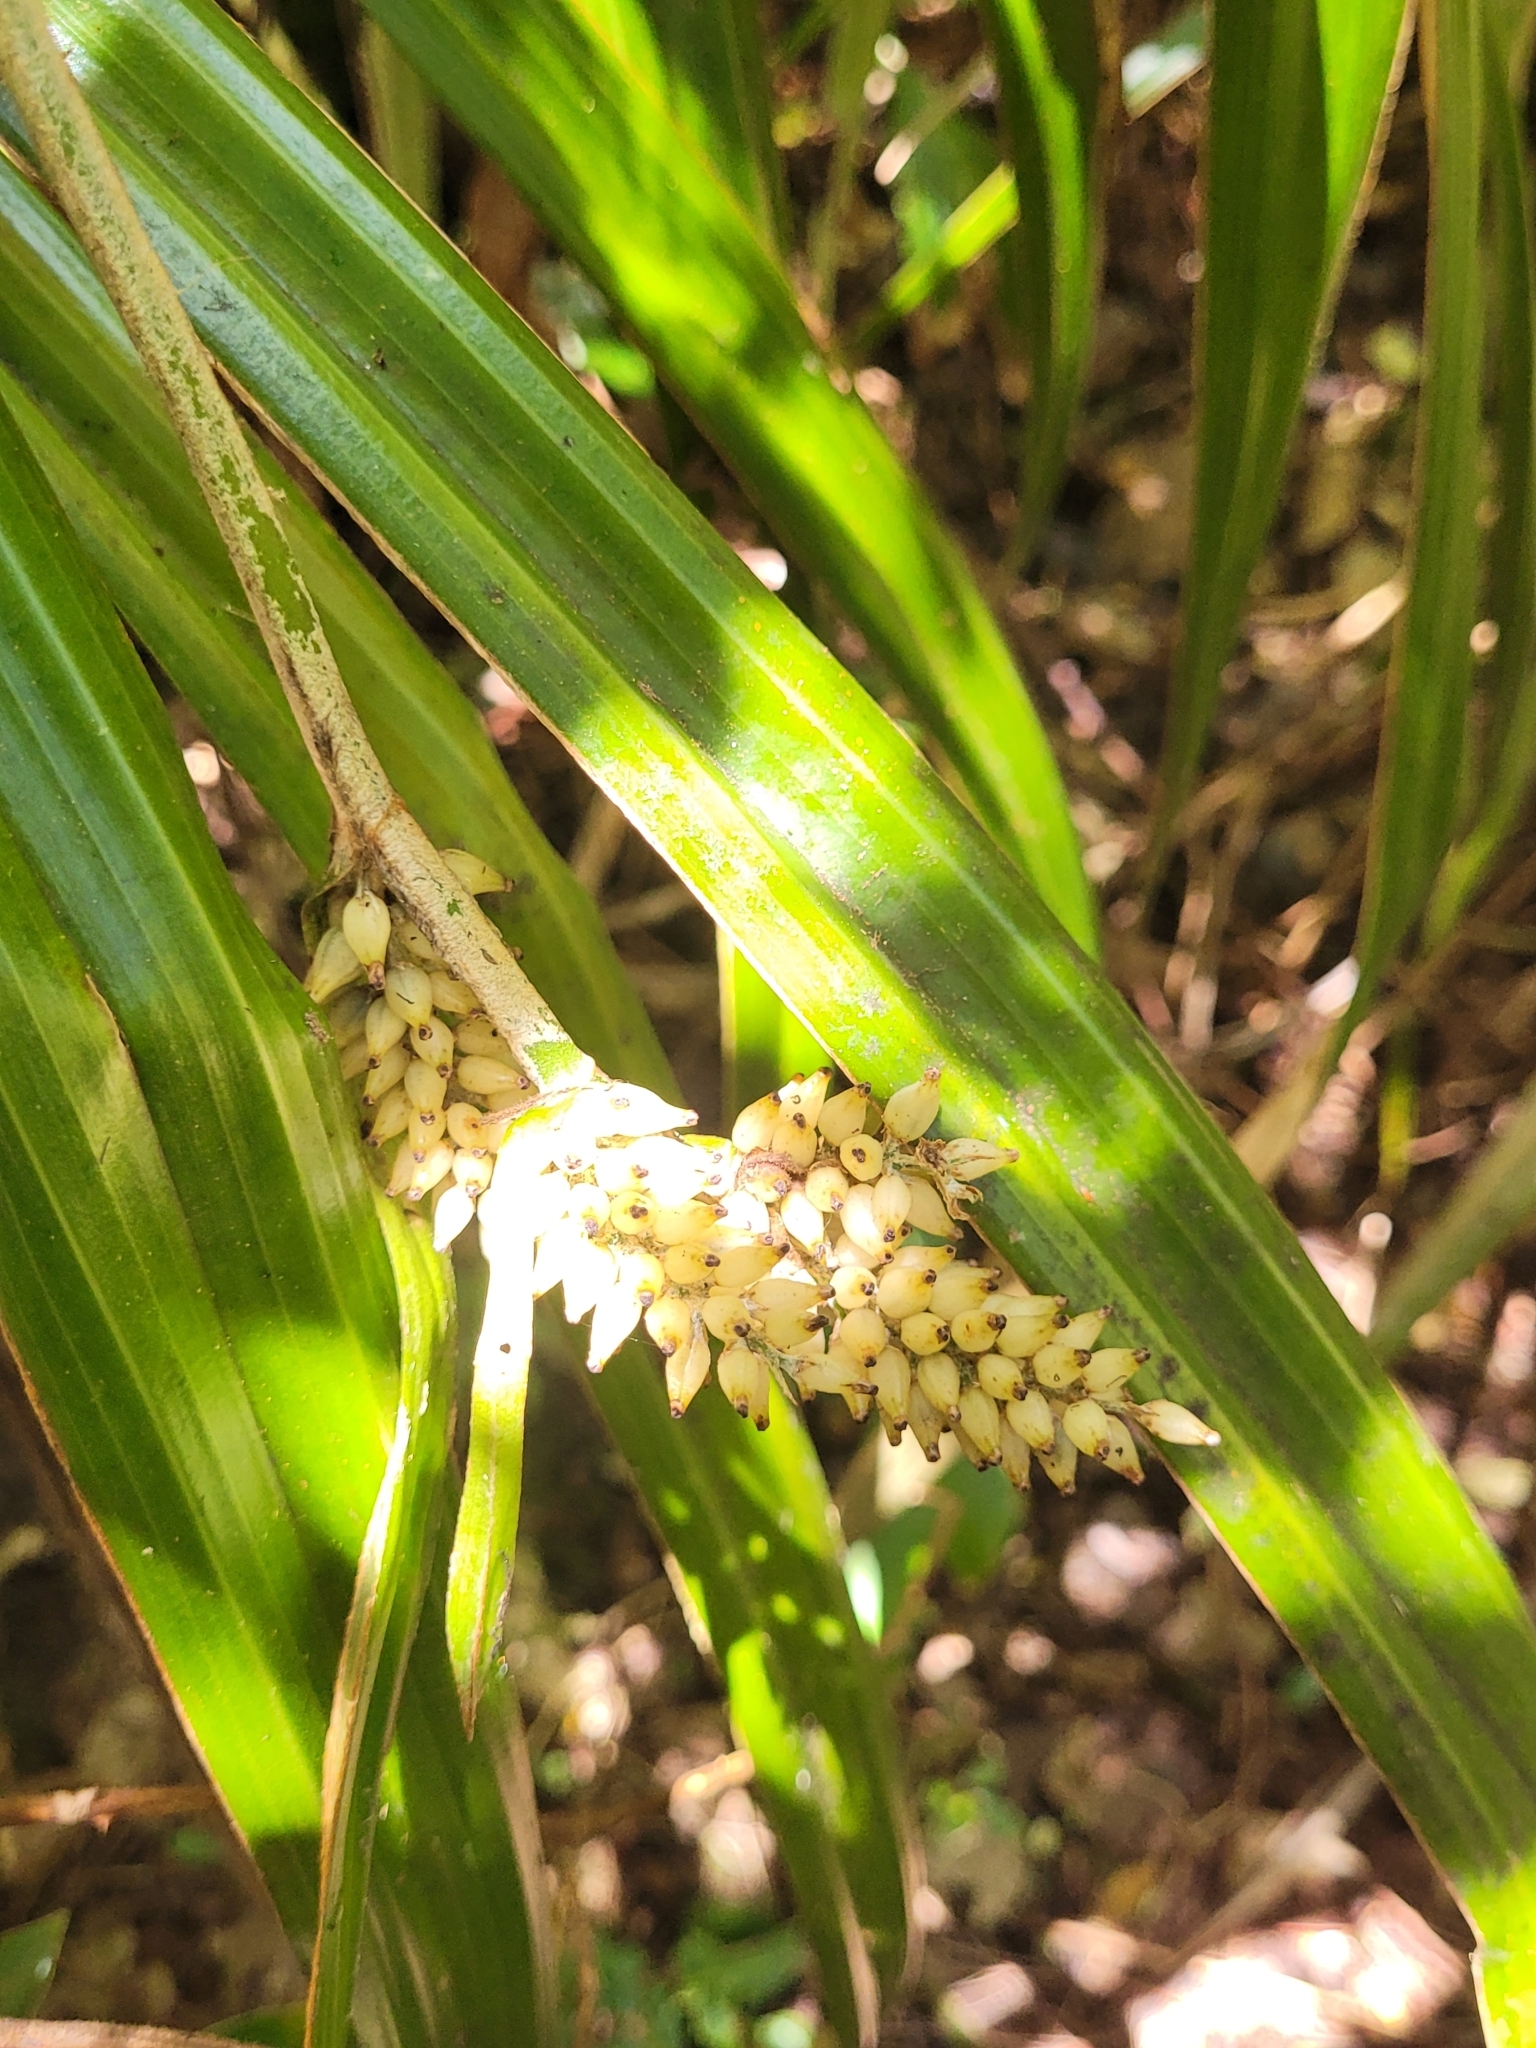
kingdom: Plantae
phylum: Tracheophyta
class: Liliopsida
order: Asparagales
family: Asteliaceae
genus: Astelia
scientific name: Astelia hemichrysa
